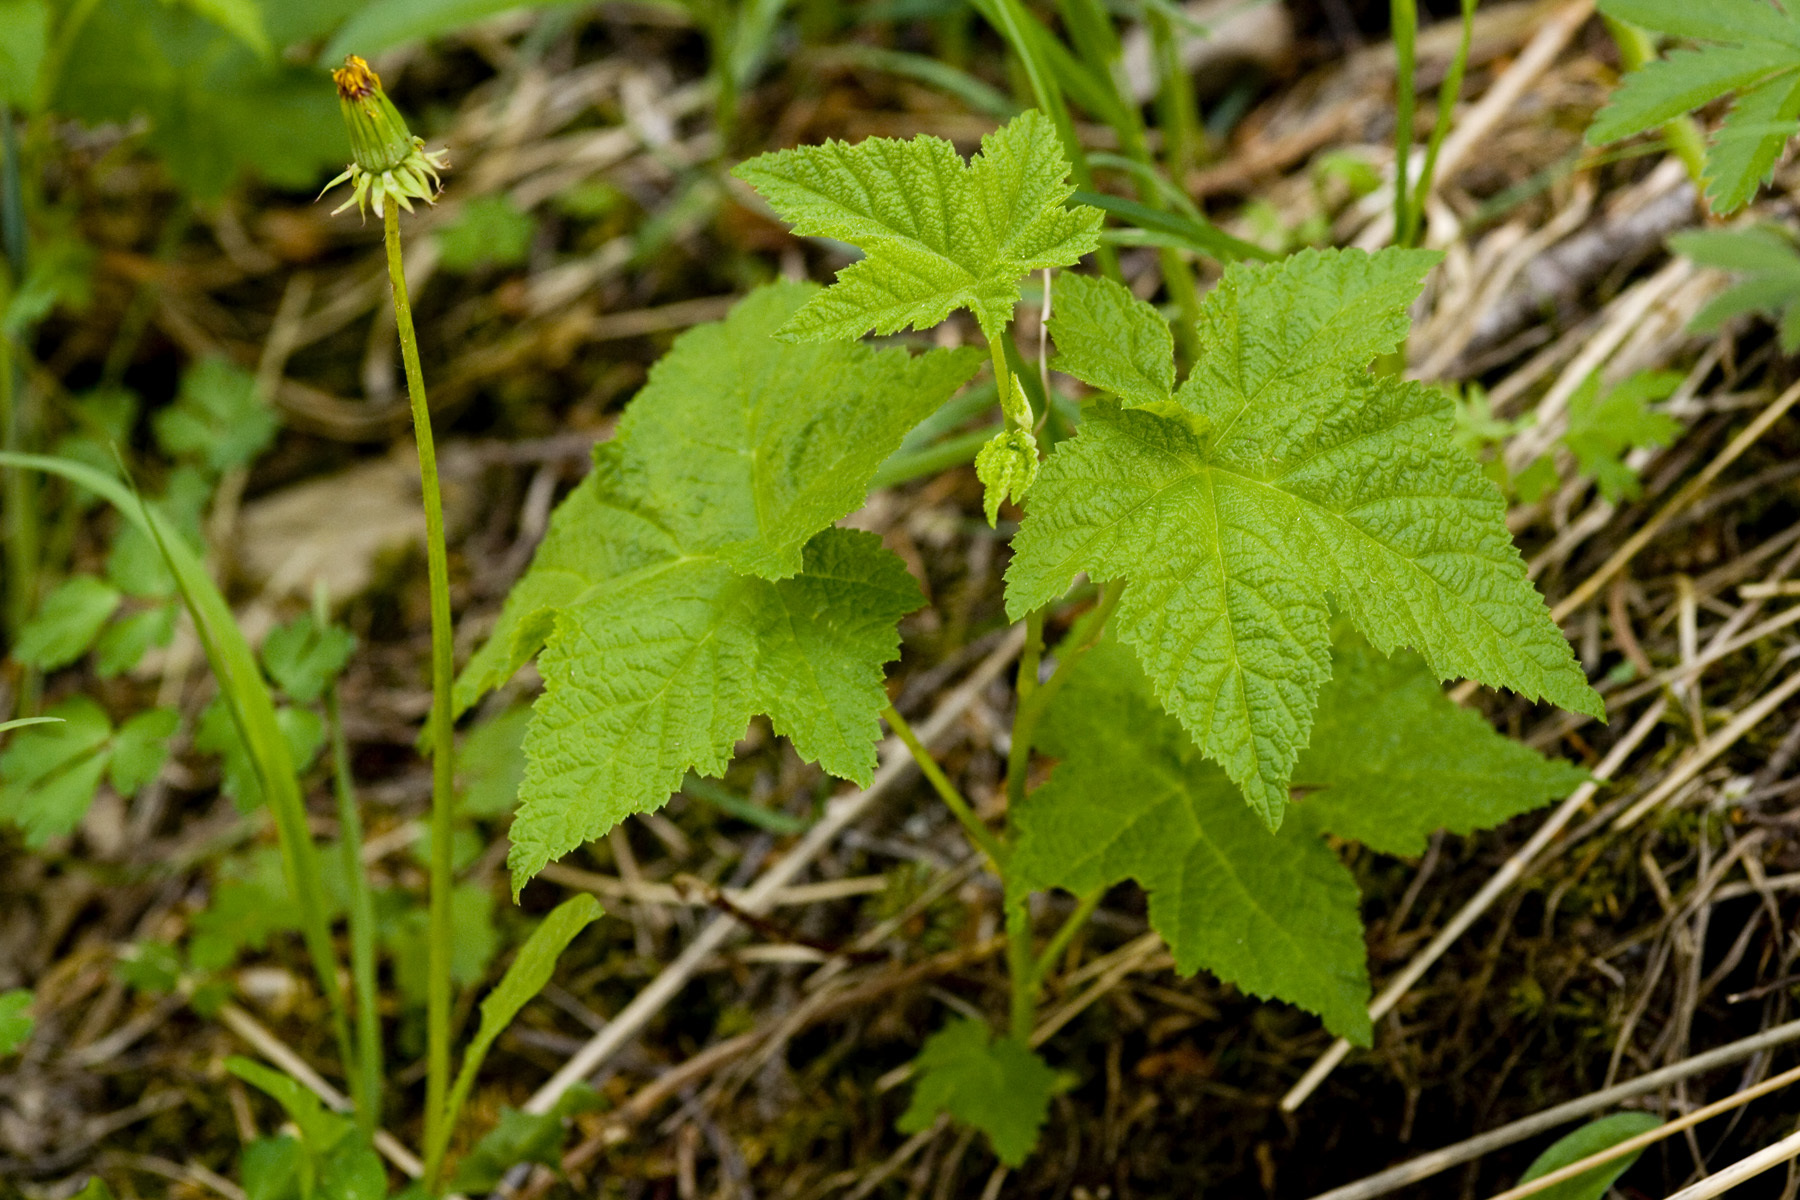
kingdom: Plantae
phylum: Tracheophyta
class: Magnoliopsida
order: Rosales
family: Rosaceae
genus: Rubus
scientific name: Rubus parviflorus
